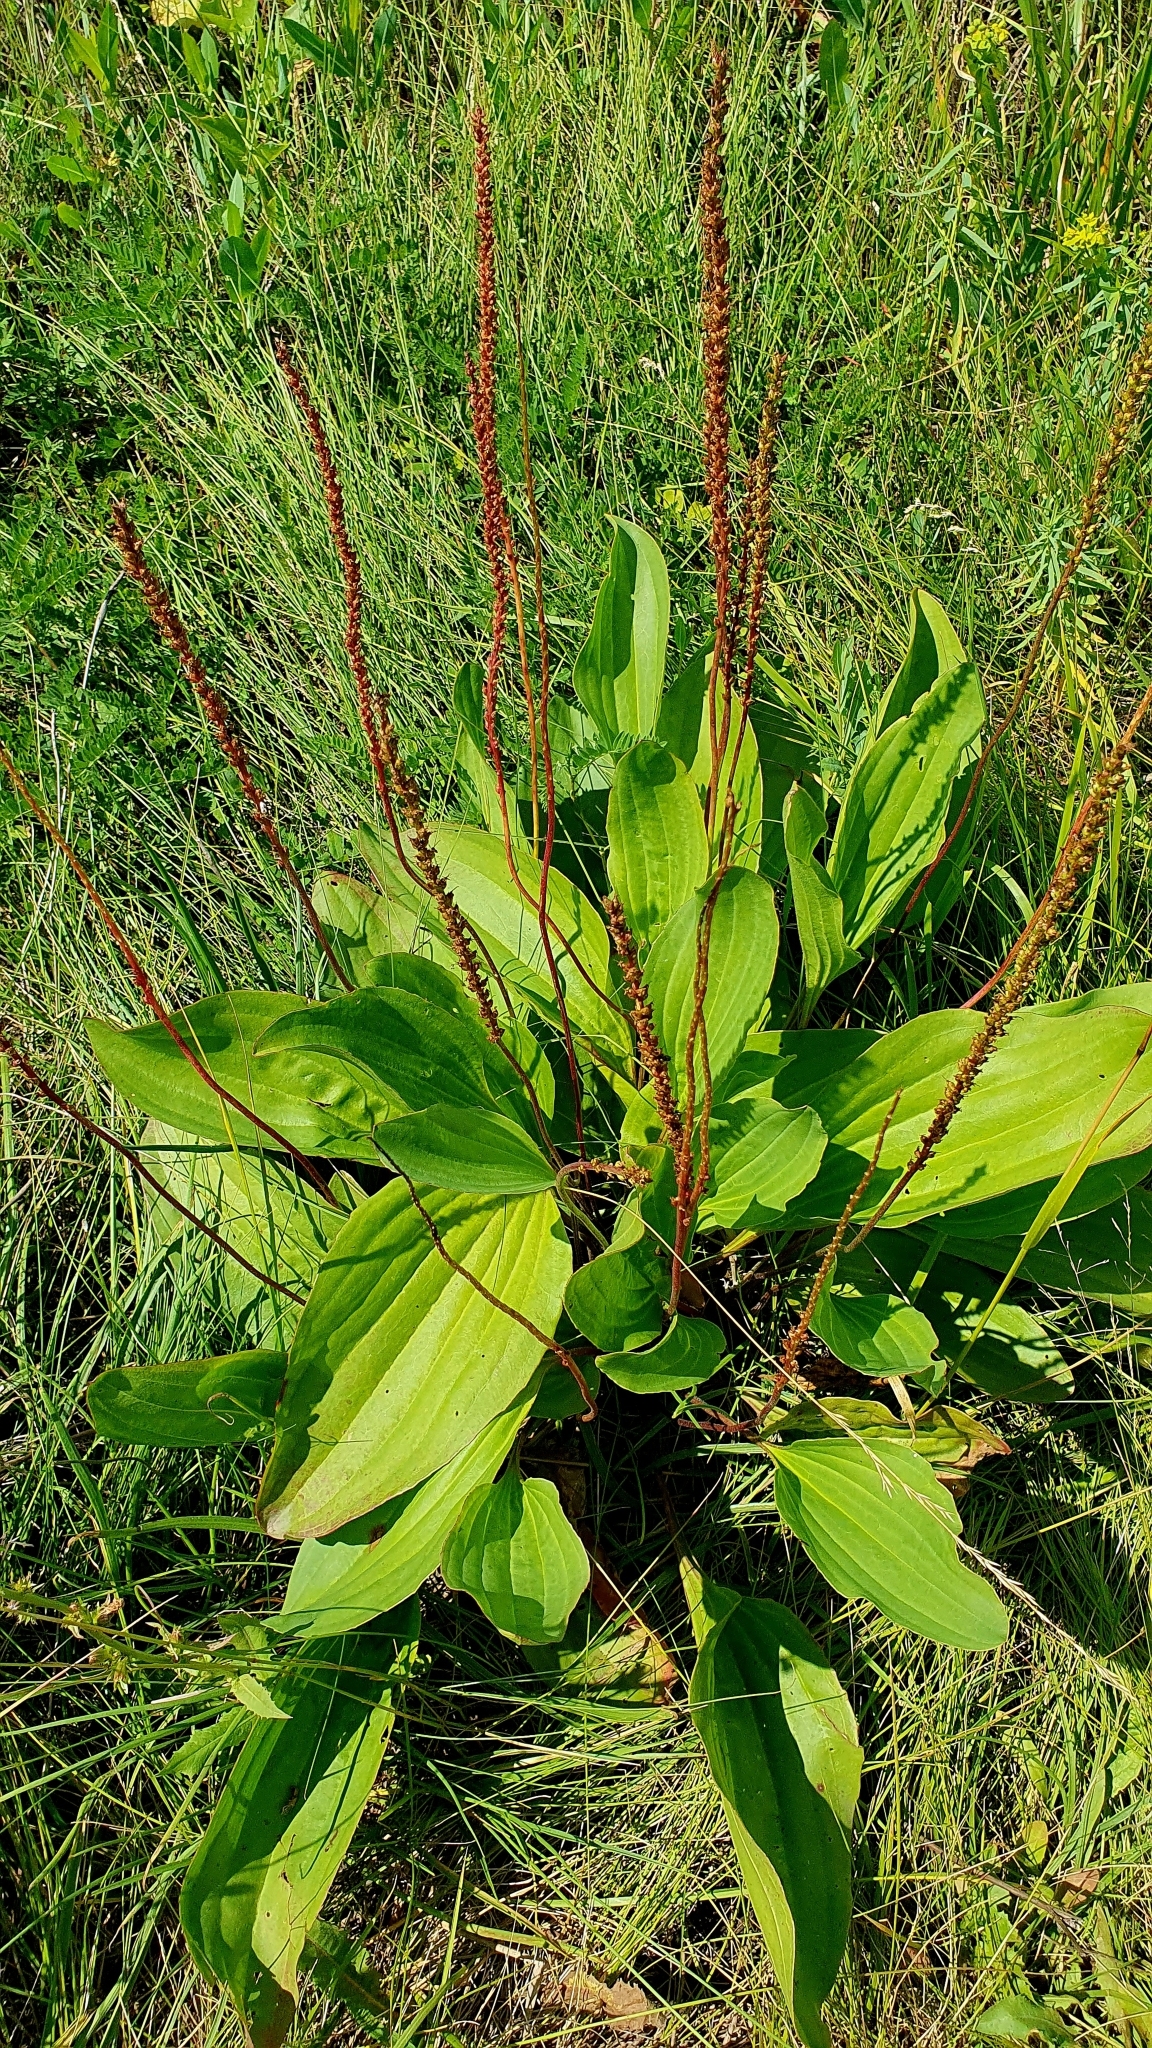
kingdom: Plantae
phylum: Tracheophyta
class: Magnoliopsida
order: Lamiales
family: Plantaginaceae
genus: Plantago
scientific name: Plantago cornuti
